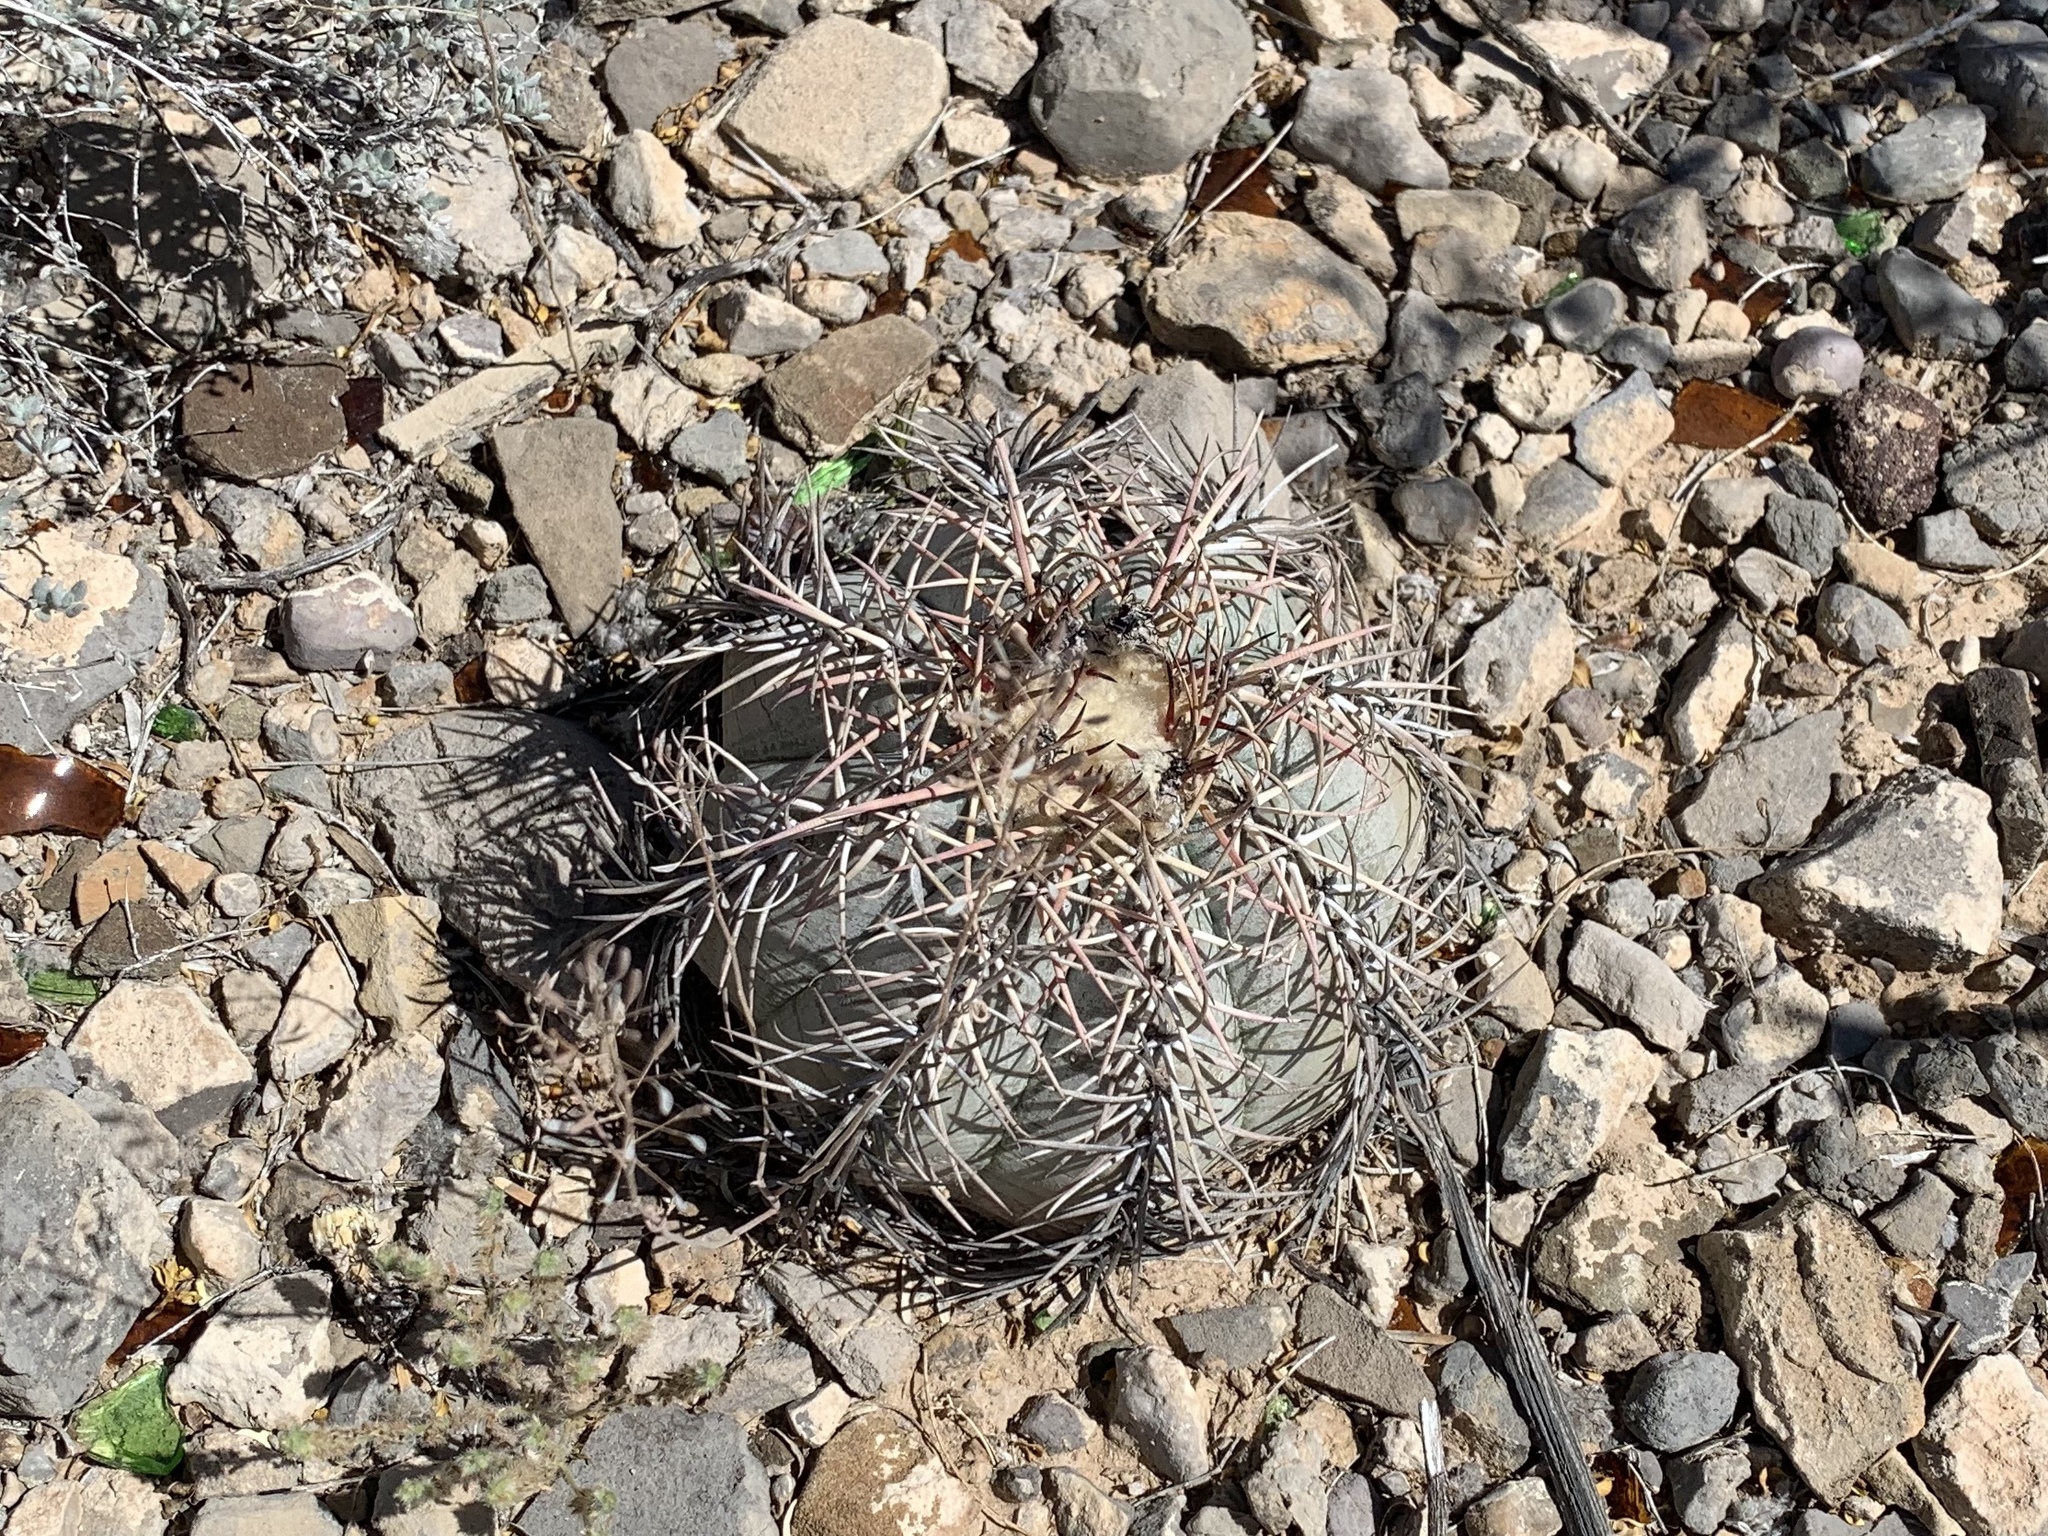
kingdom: Plantae
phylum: Tracheophyta
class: Magnoliopsida
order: Caryophyllales
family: Cactaceae
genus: Echinocactus
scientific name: Echinocactus horizonthalonius
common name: Devilshead
